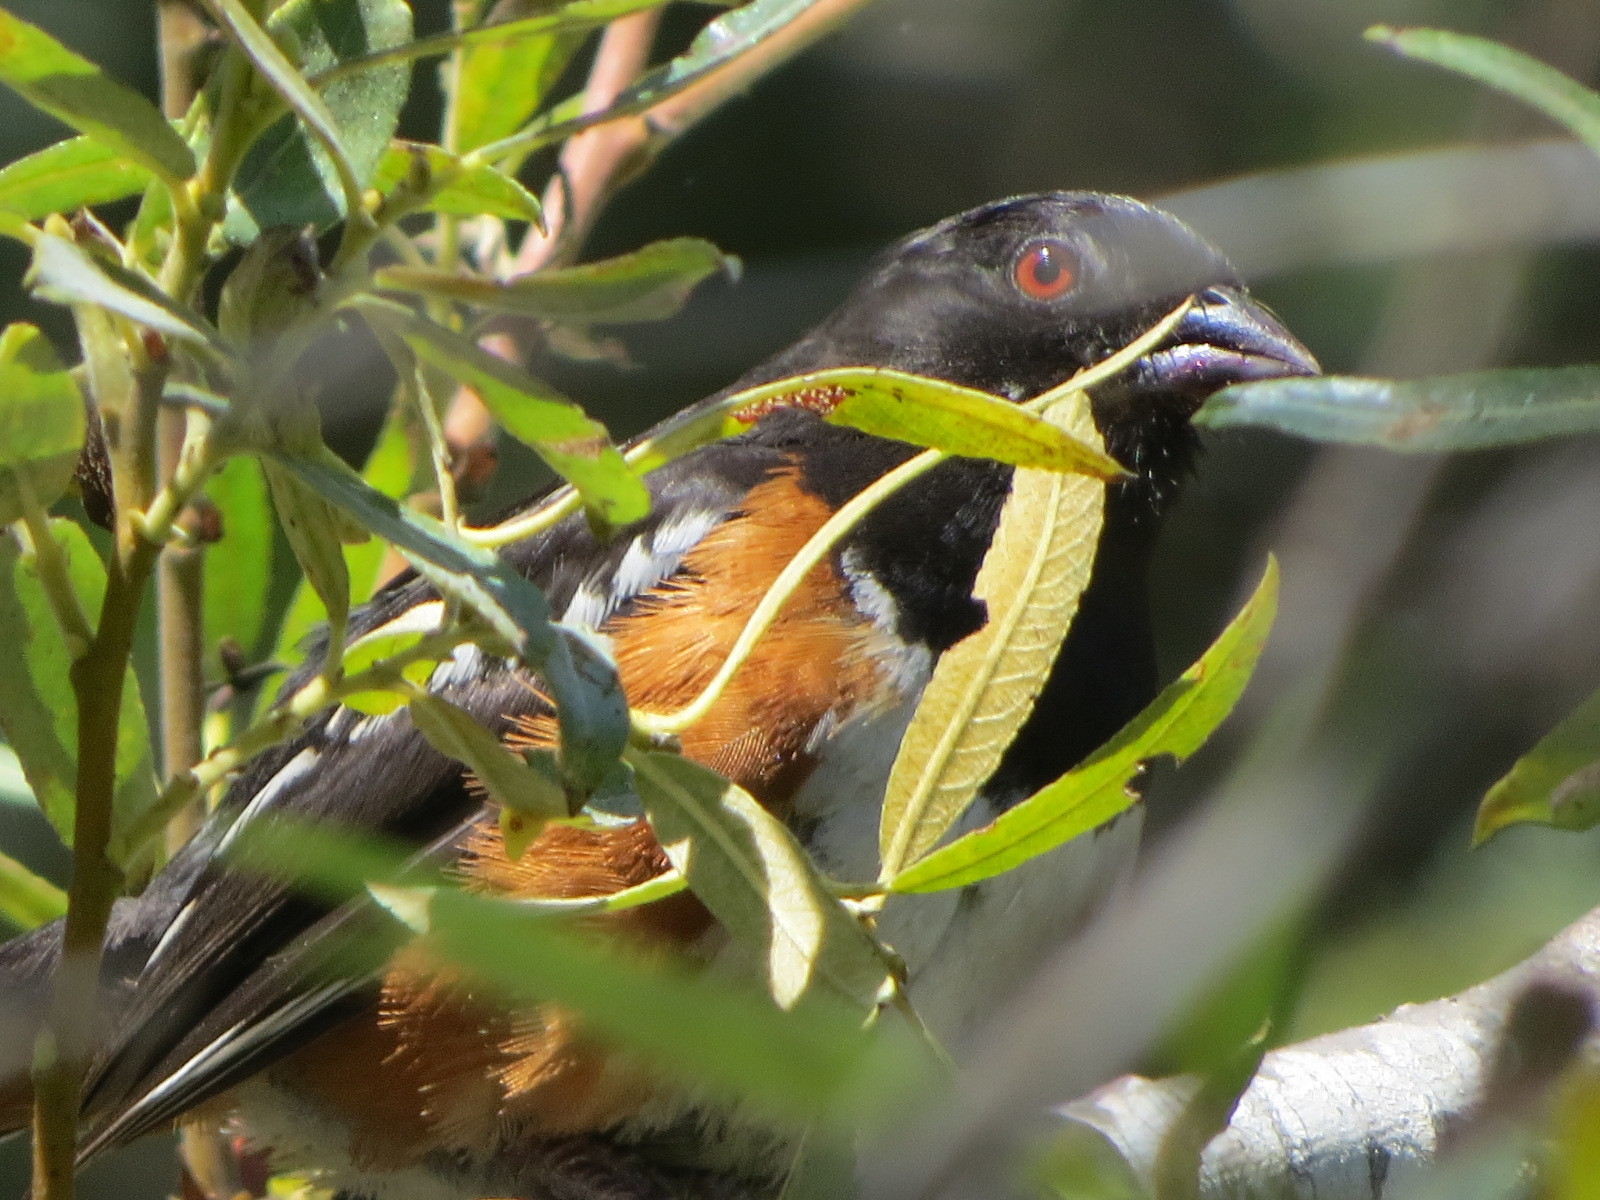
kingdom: Animalia
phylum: Chordata
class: Aves
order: Passeriformes
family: Passerellidae
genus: Pipilo
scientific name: Pipilo maculatus
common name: Spotted towhee
